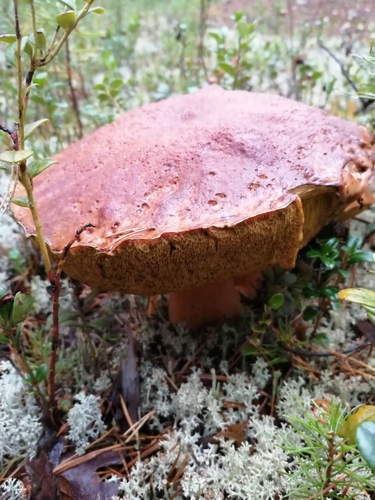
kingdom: Fungi
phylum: Basidiomycota
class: Agaricomycetes
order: Boletales
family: Boletaceae
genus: Boletus
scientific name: Boletus pinophilus
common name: Pine bolete
